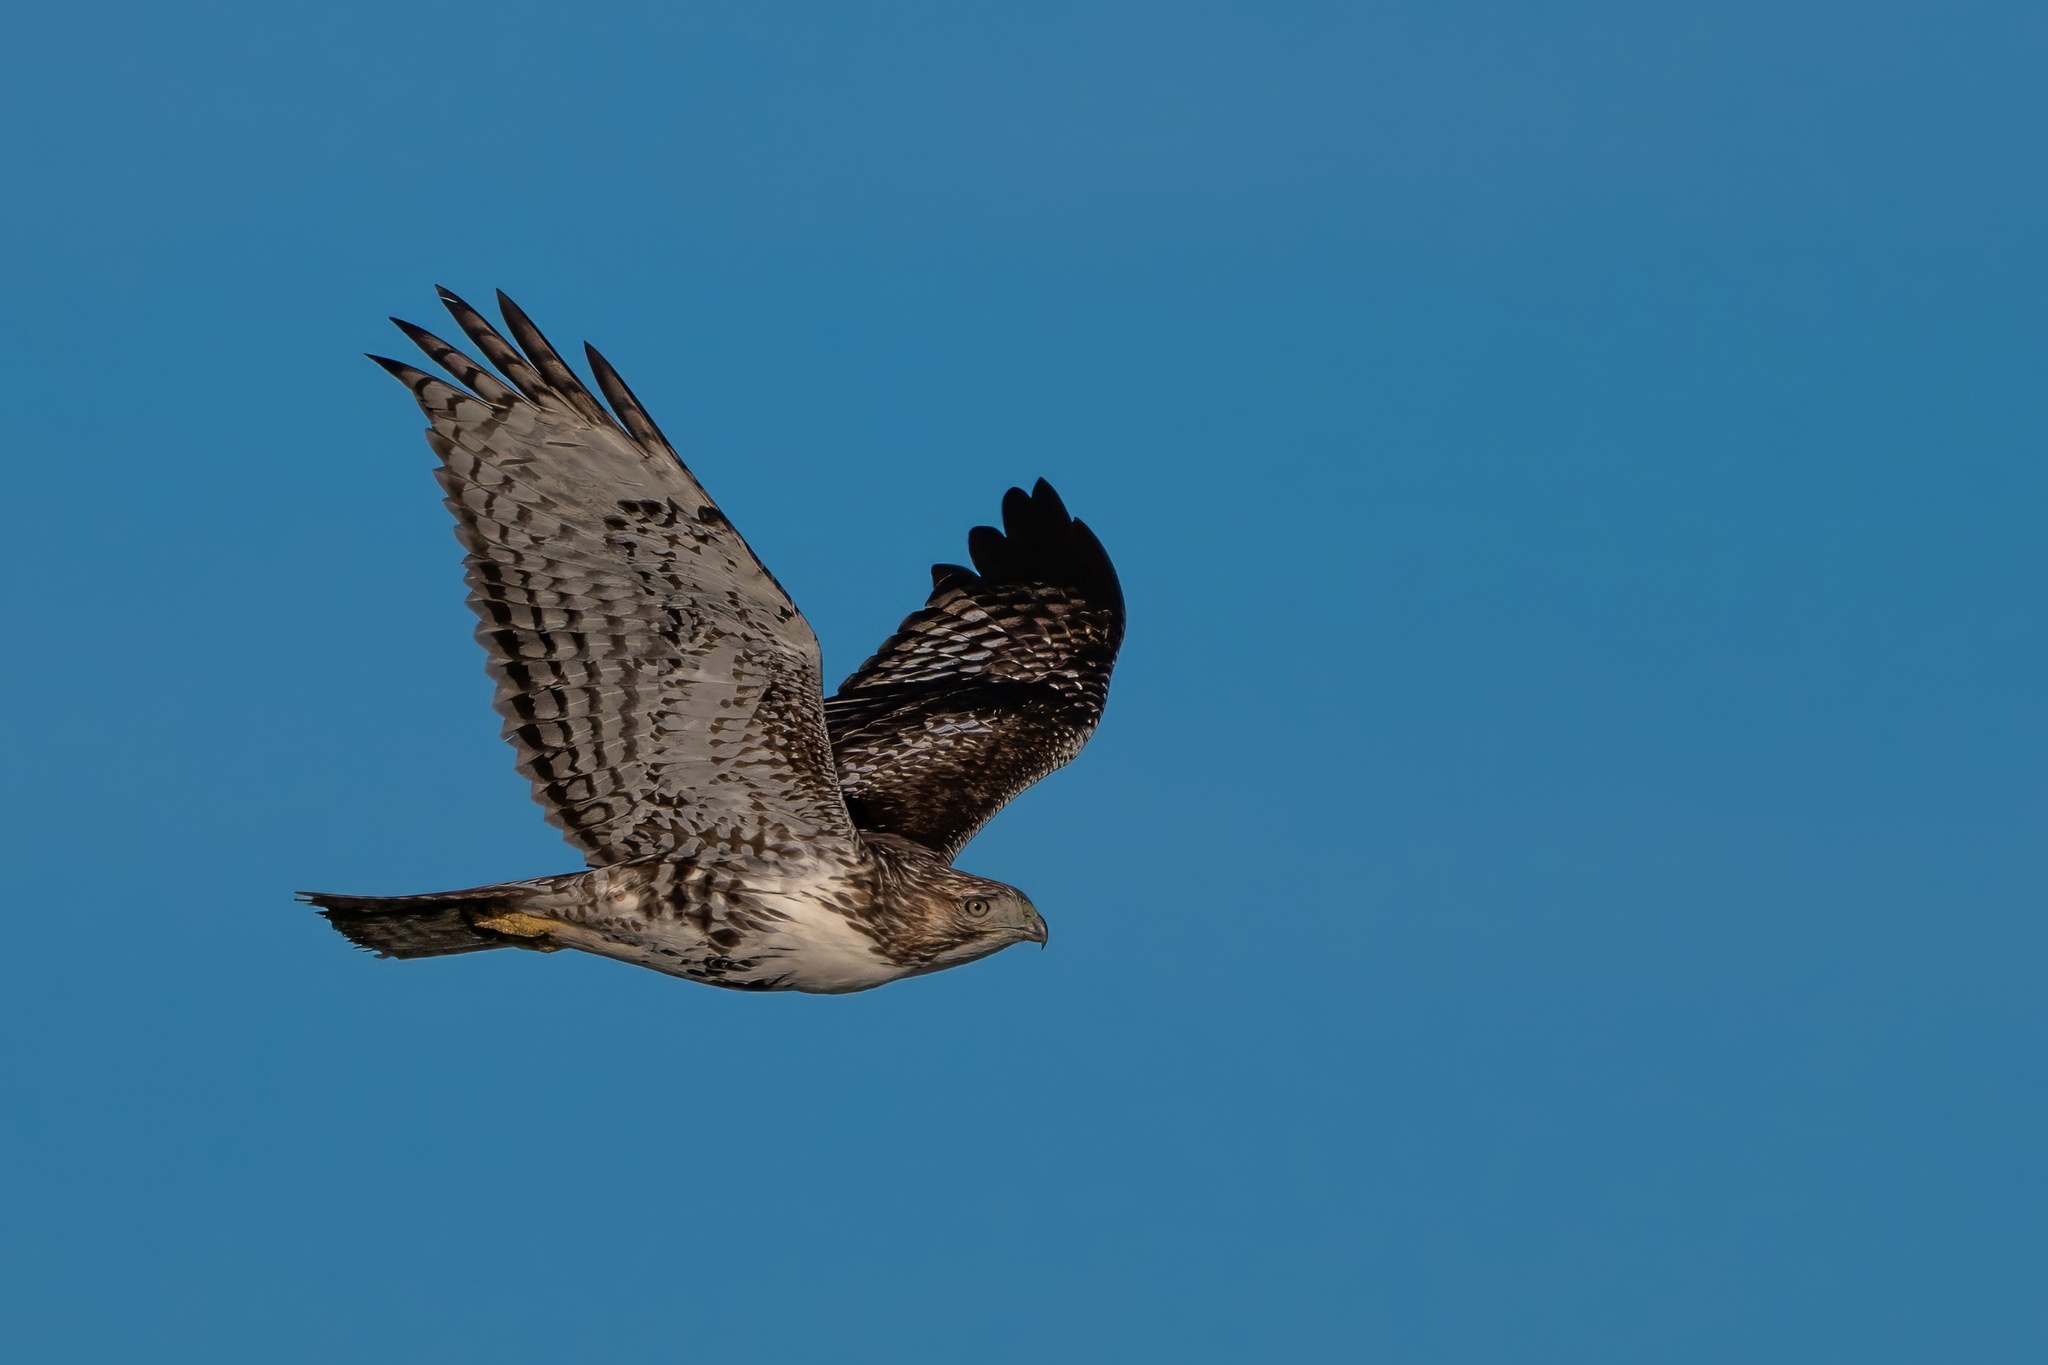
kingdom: Animalia
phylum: Chordata
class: Aves
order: Accipitriformes
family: Accipitridae
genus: Buteo
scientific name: Buteo jamaicensis
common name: Red-tailed hawk
